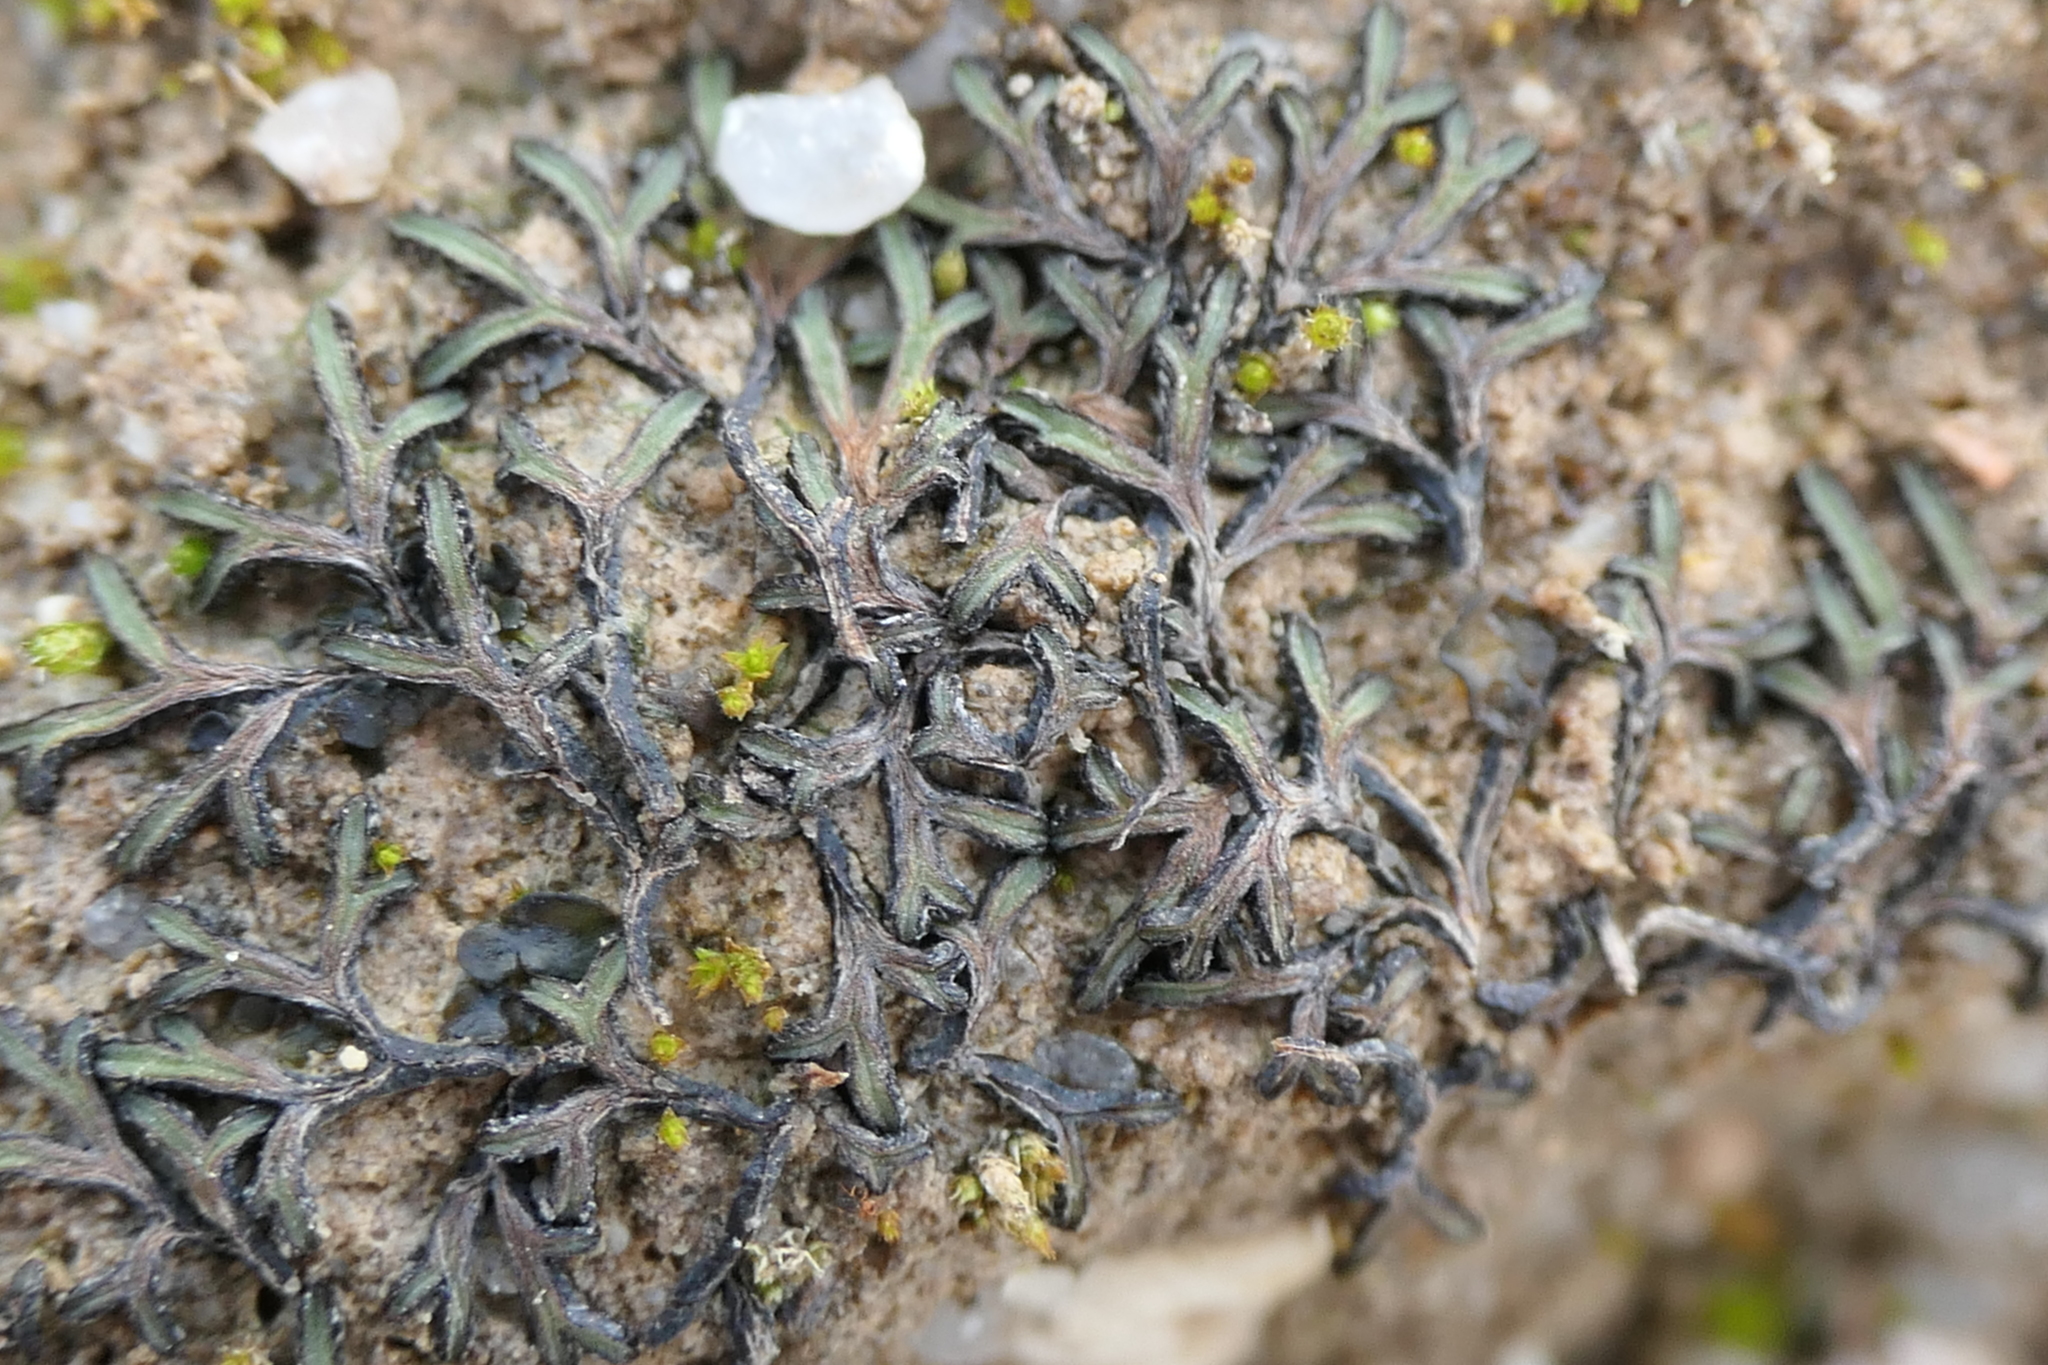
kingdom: Plantae
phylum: Marchantiophyta
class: Marchantiopsida
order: Marchantiales
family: Ricciaceae
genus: Riccia
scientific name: Riccia nigrella
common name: Black crystalwort
